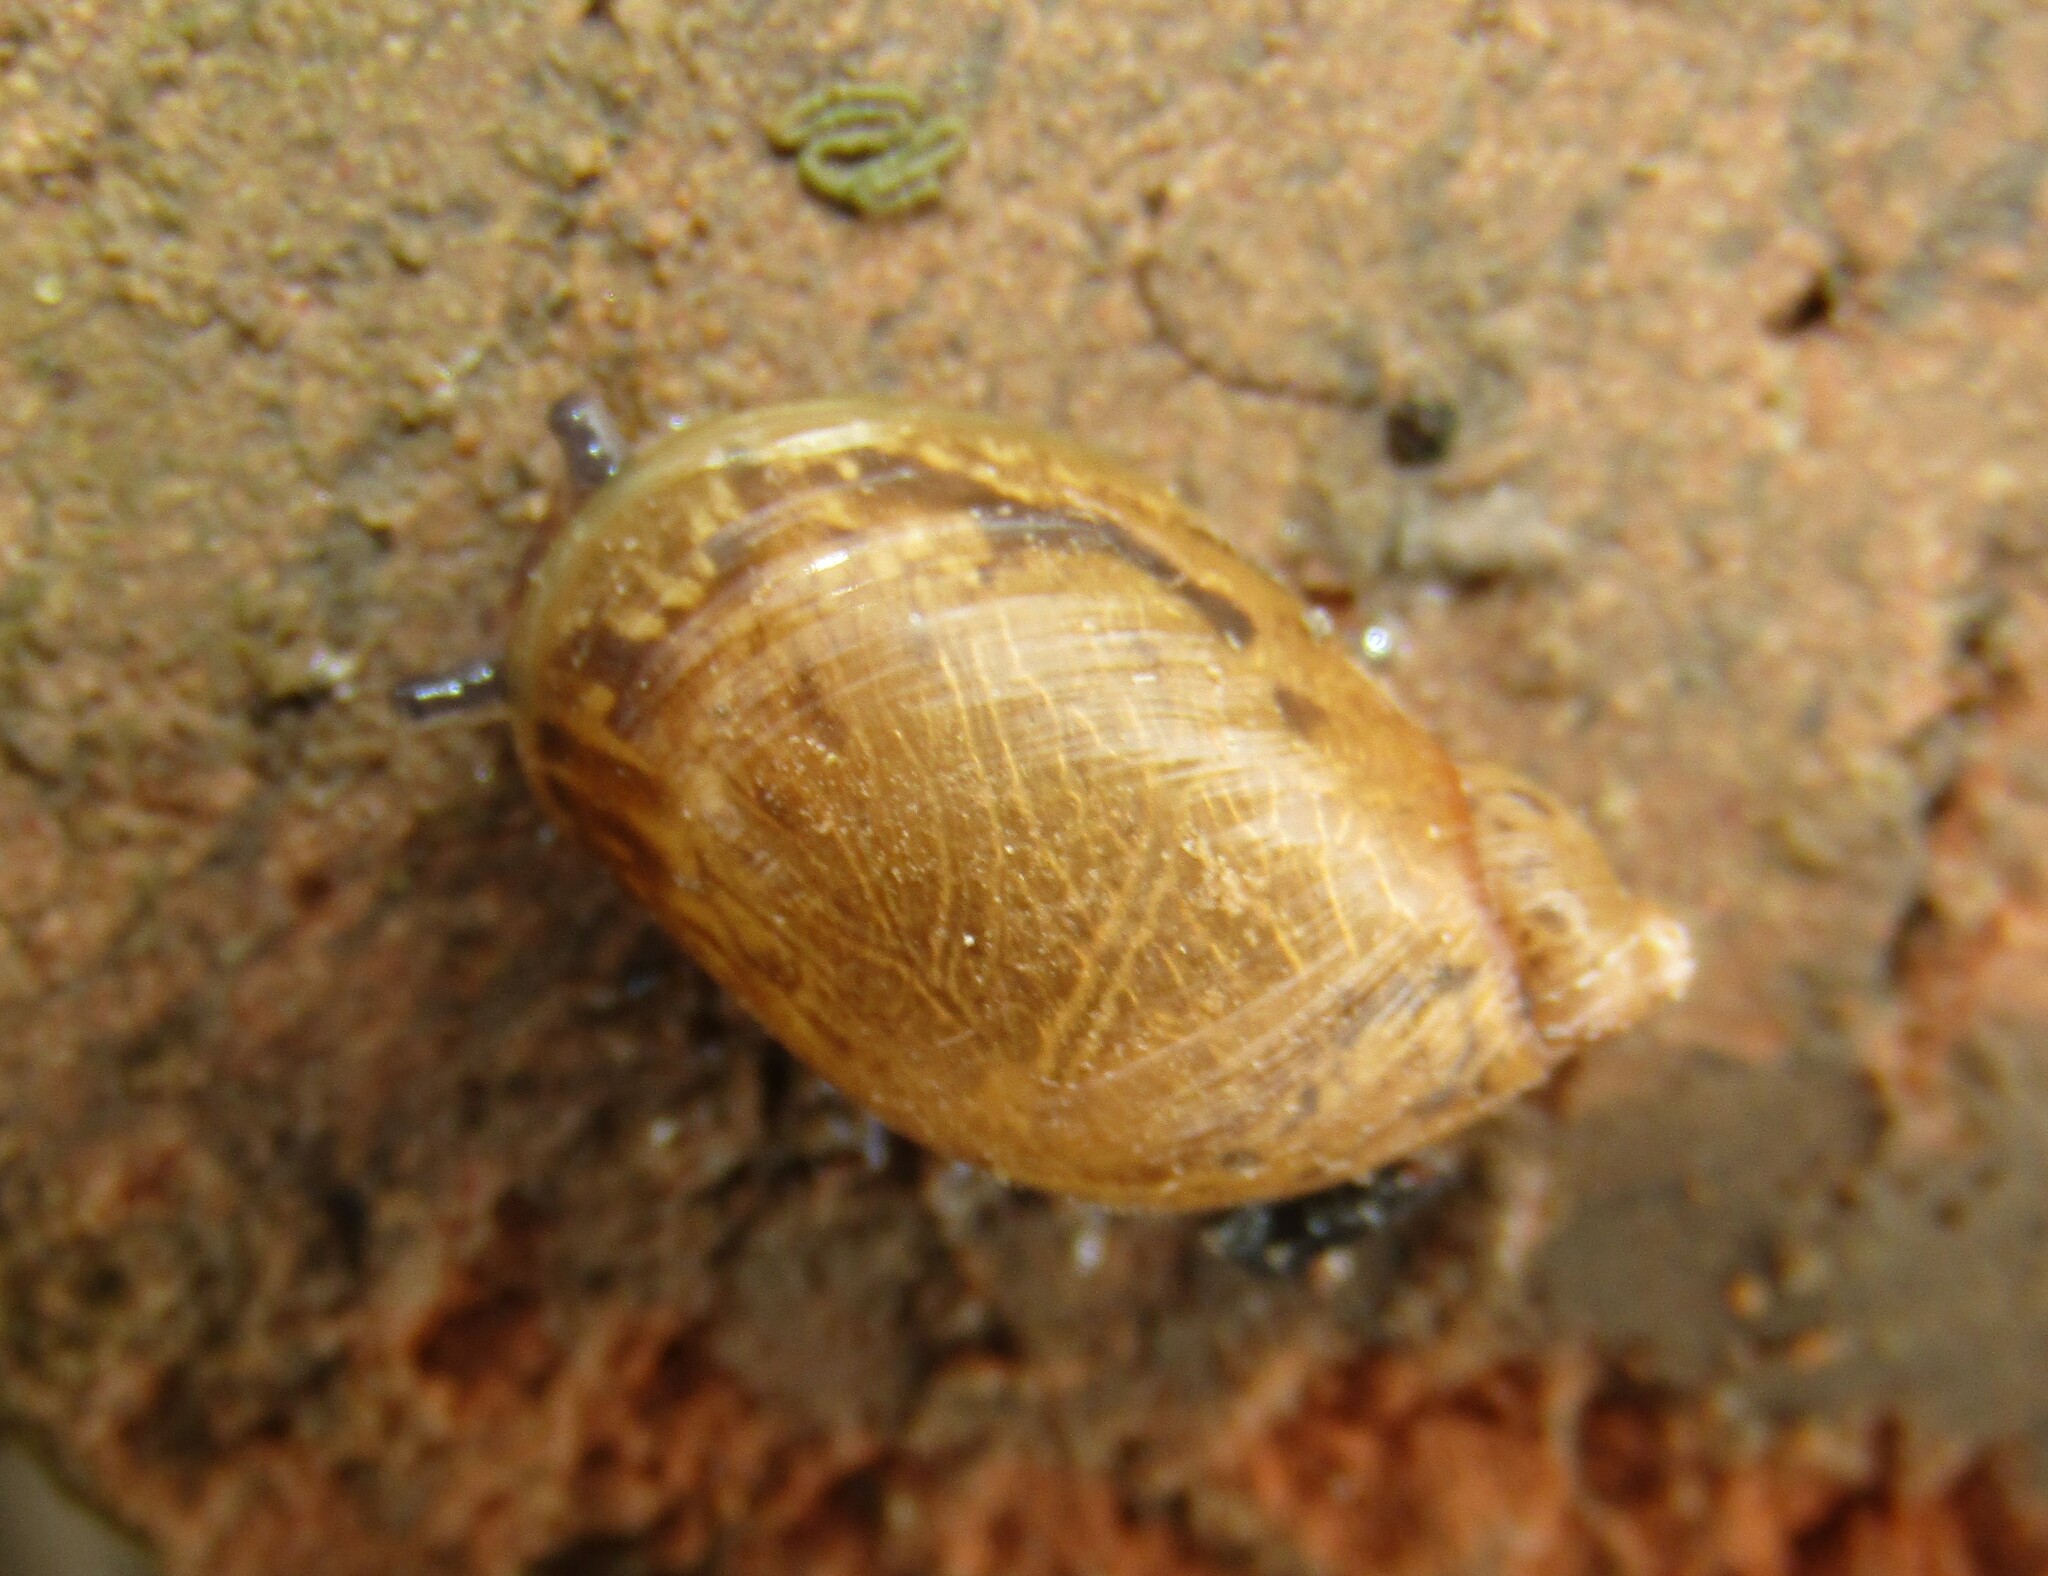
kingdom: Animalia
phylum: Mollusca
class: Gastropoda
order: Stylommatophora
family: Succineidae
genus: Succinea
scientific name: Succinea putris
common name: European ambersnail
